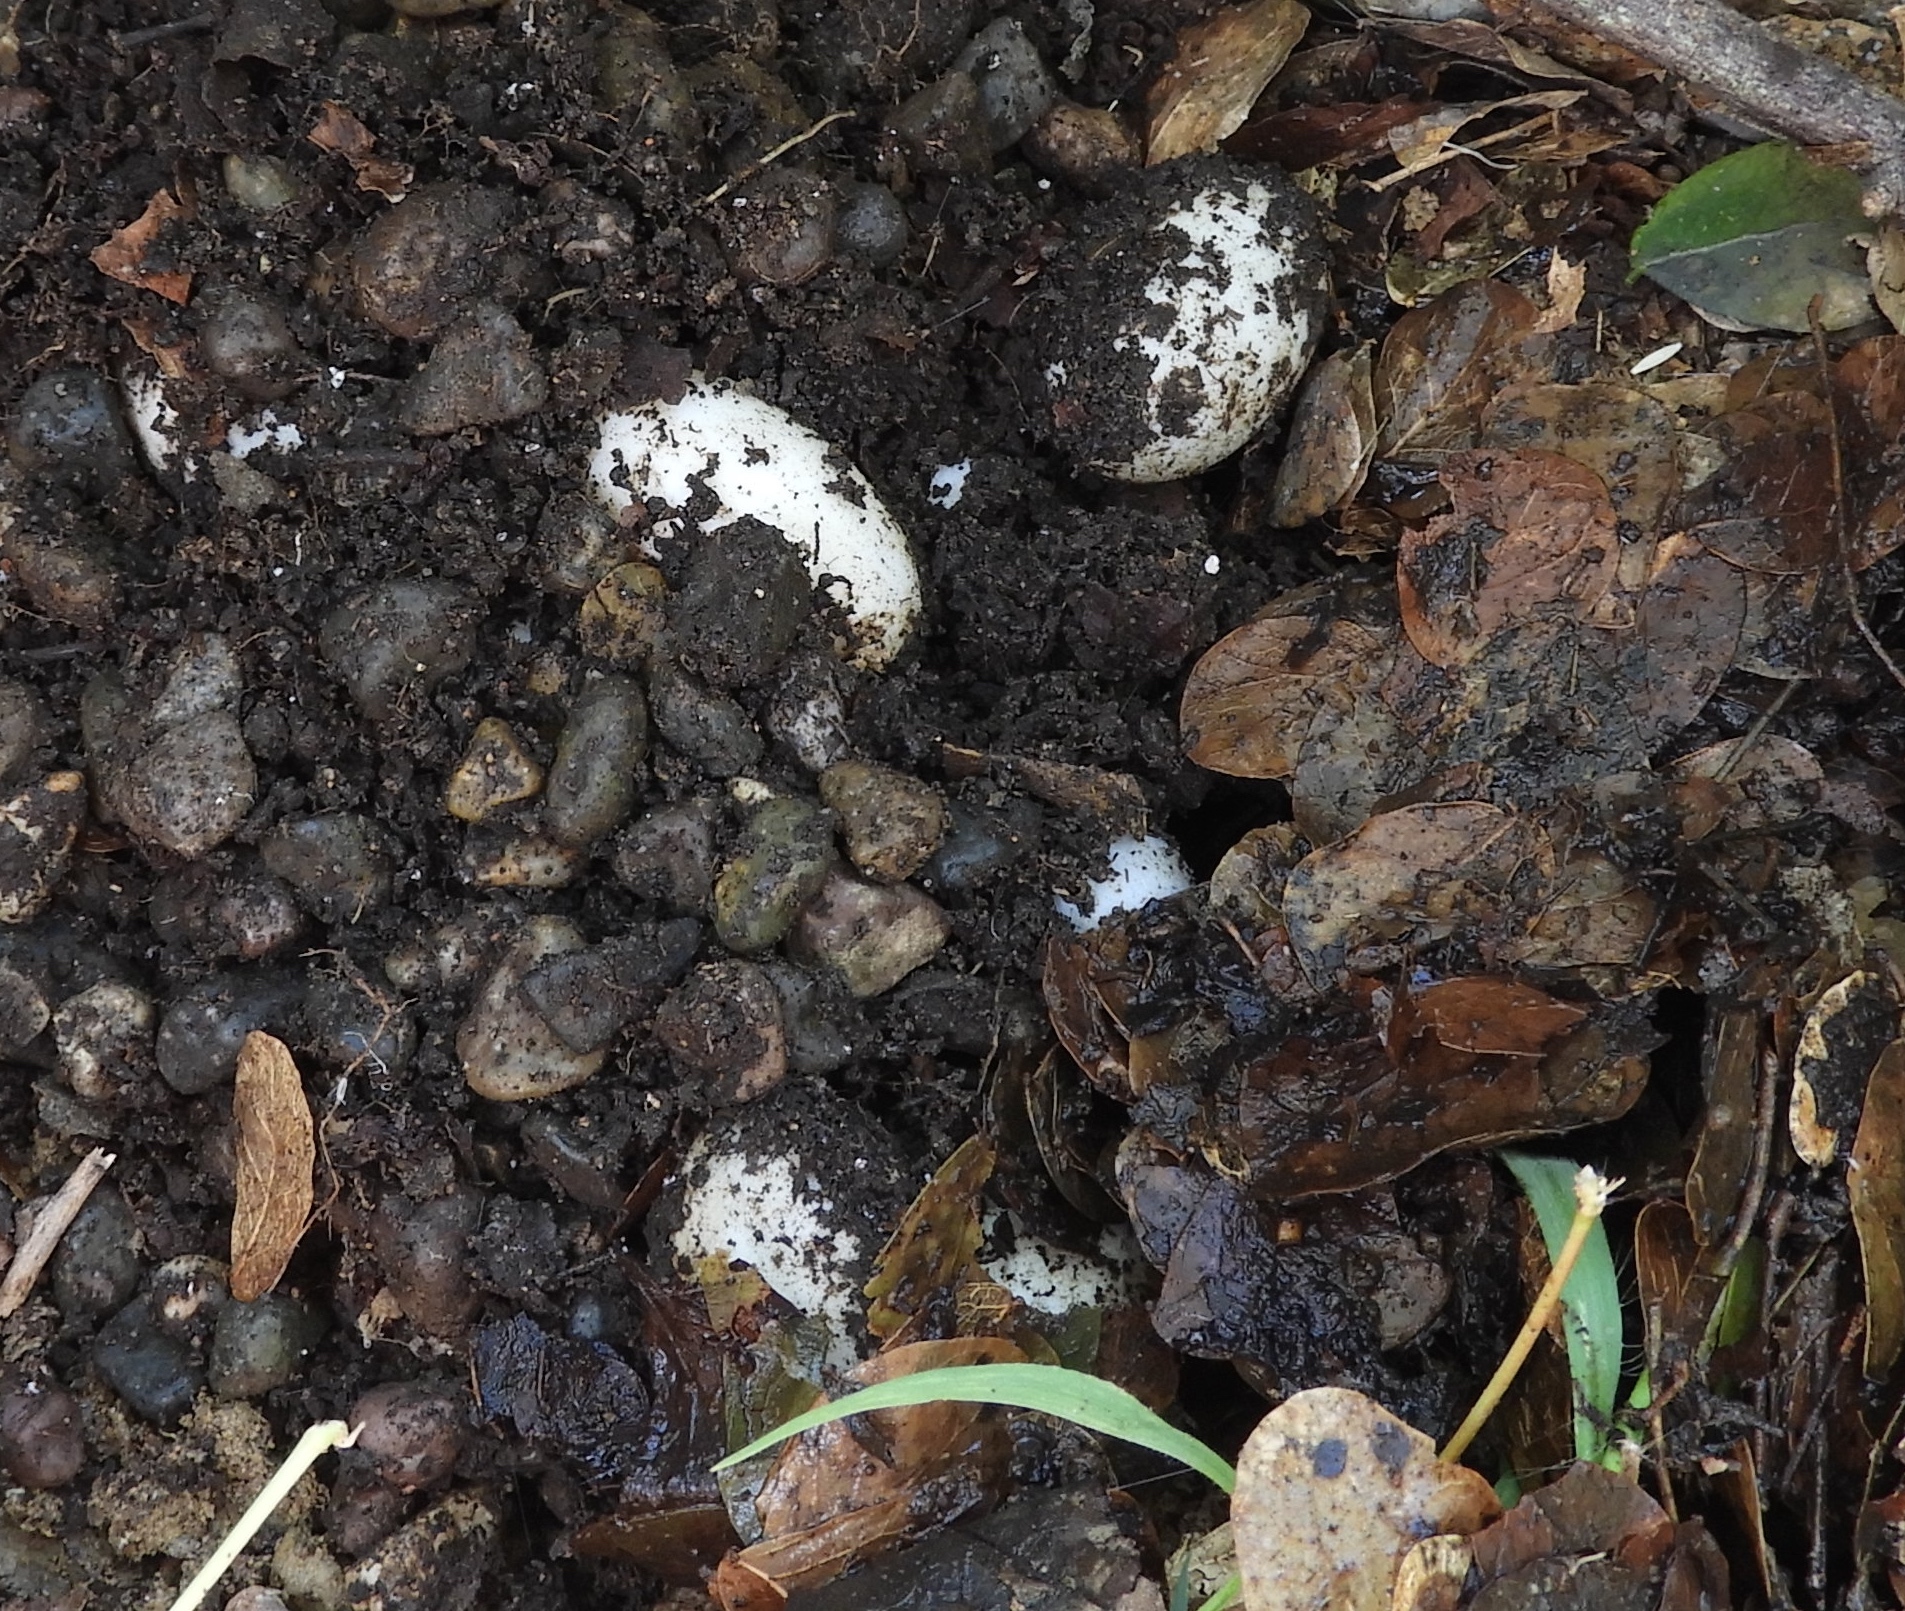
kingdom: Animalia
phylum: Chordata
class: Testudines
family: Kinosternidae
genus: Kinosternon
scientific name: Kinosternon integrum
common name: Mexican mud turtle
